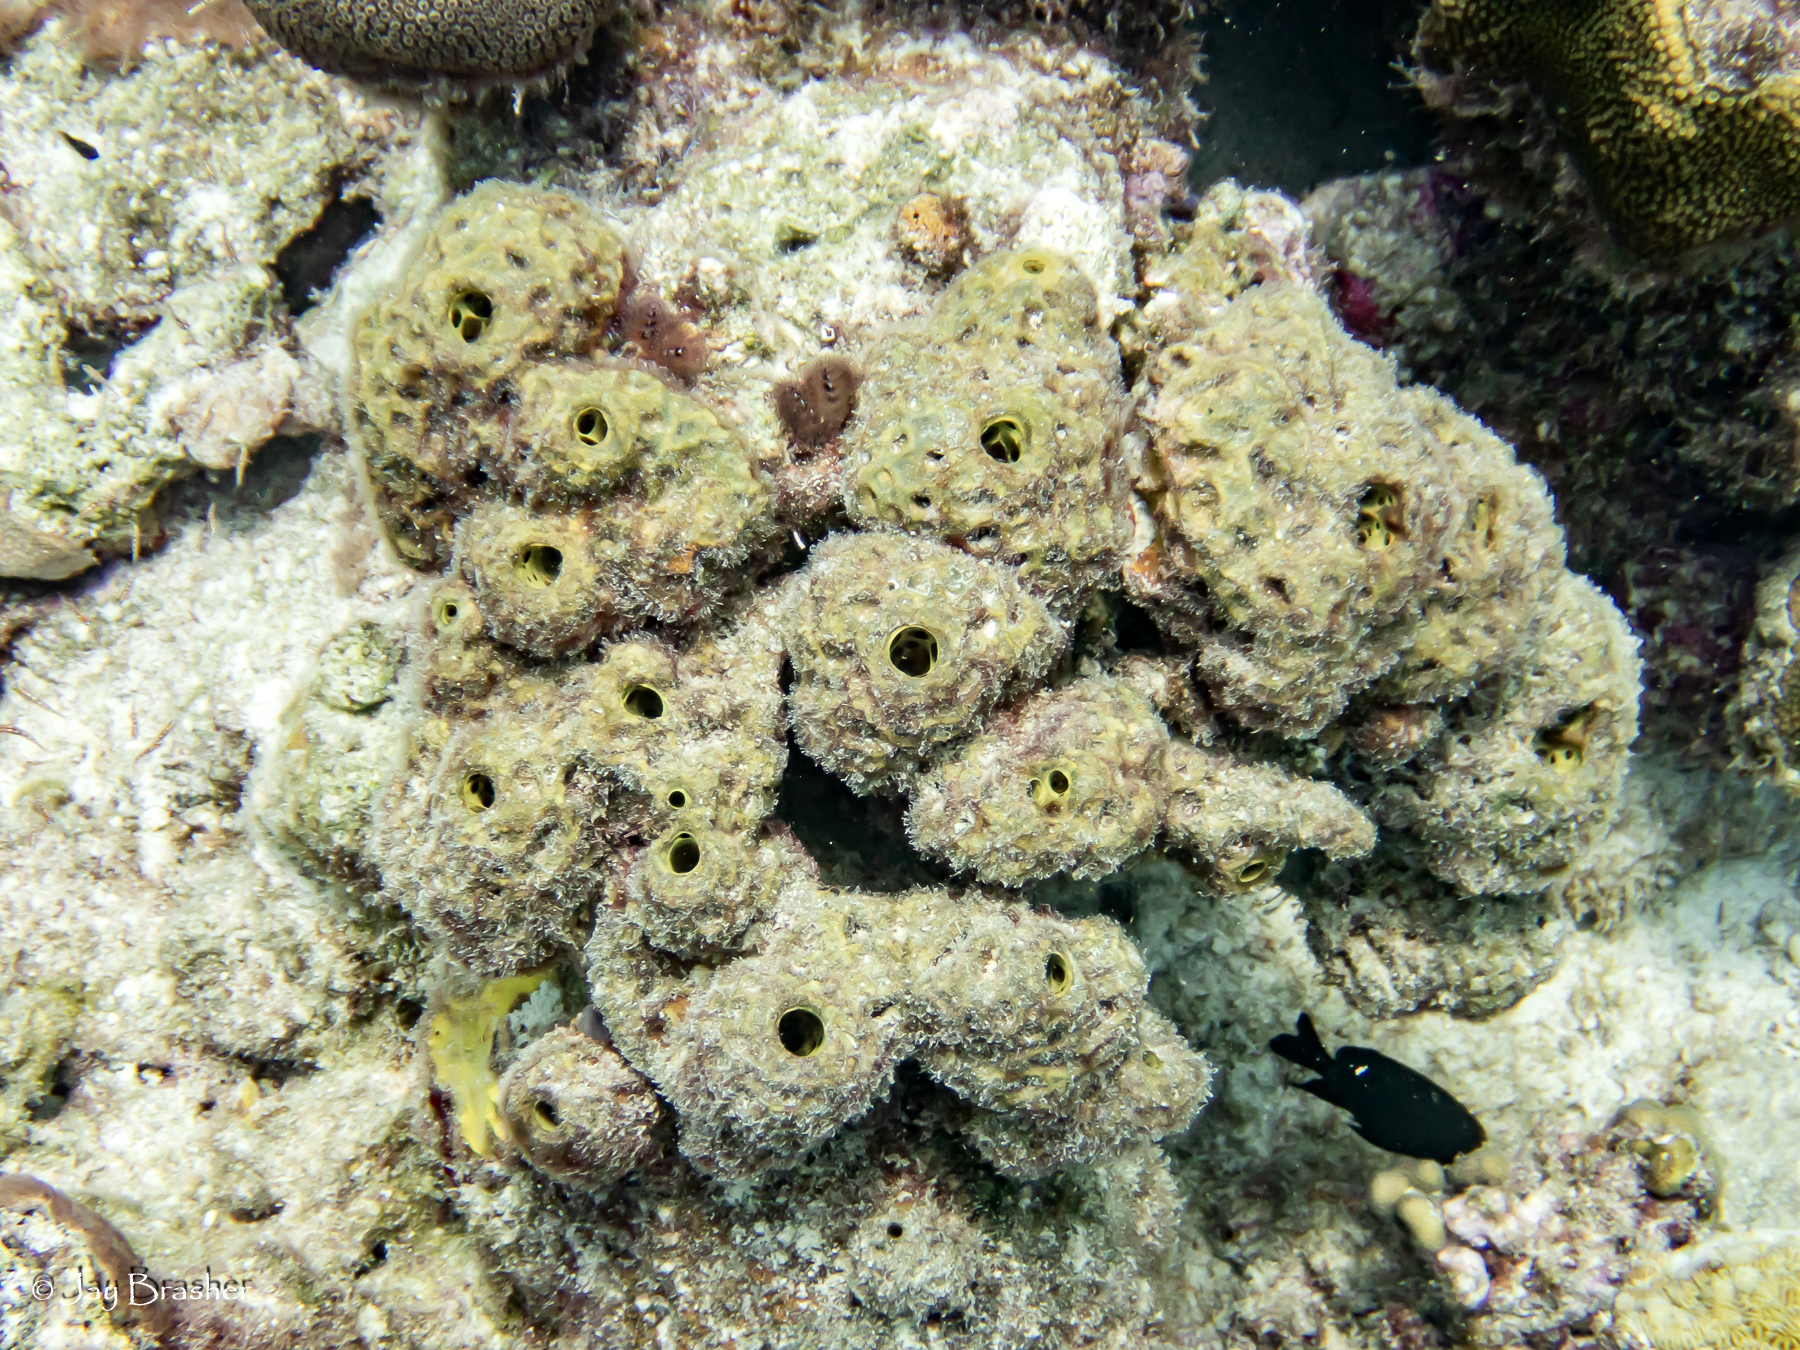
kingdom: Animalia
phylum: Porifera
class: Demospongiae
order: Verongiida
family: Aplysinidae
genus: Verongula
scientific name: Verongula rigida
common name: Pitted sponge
